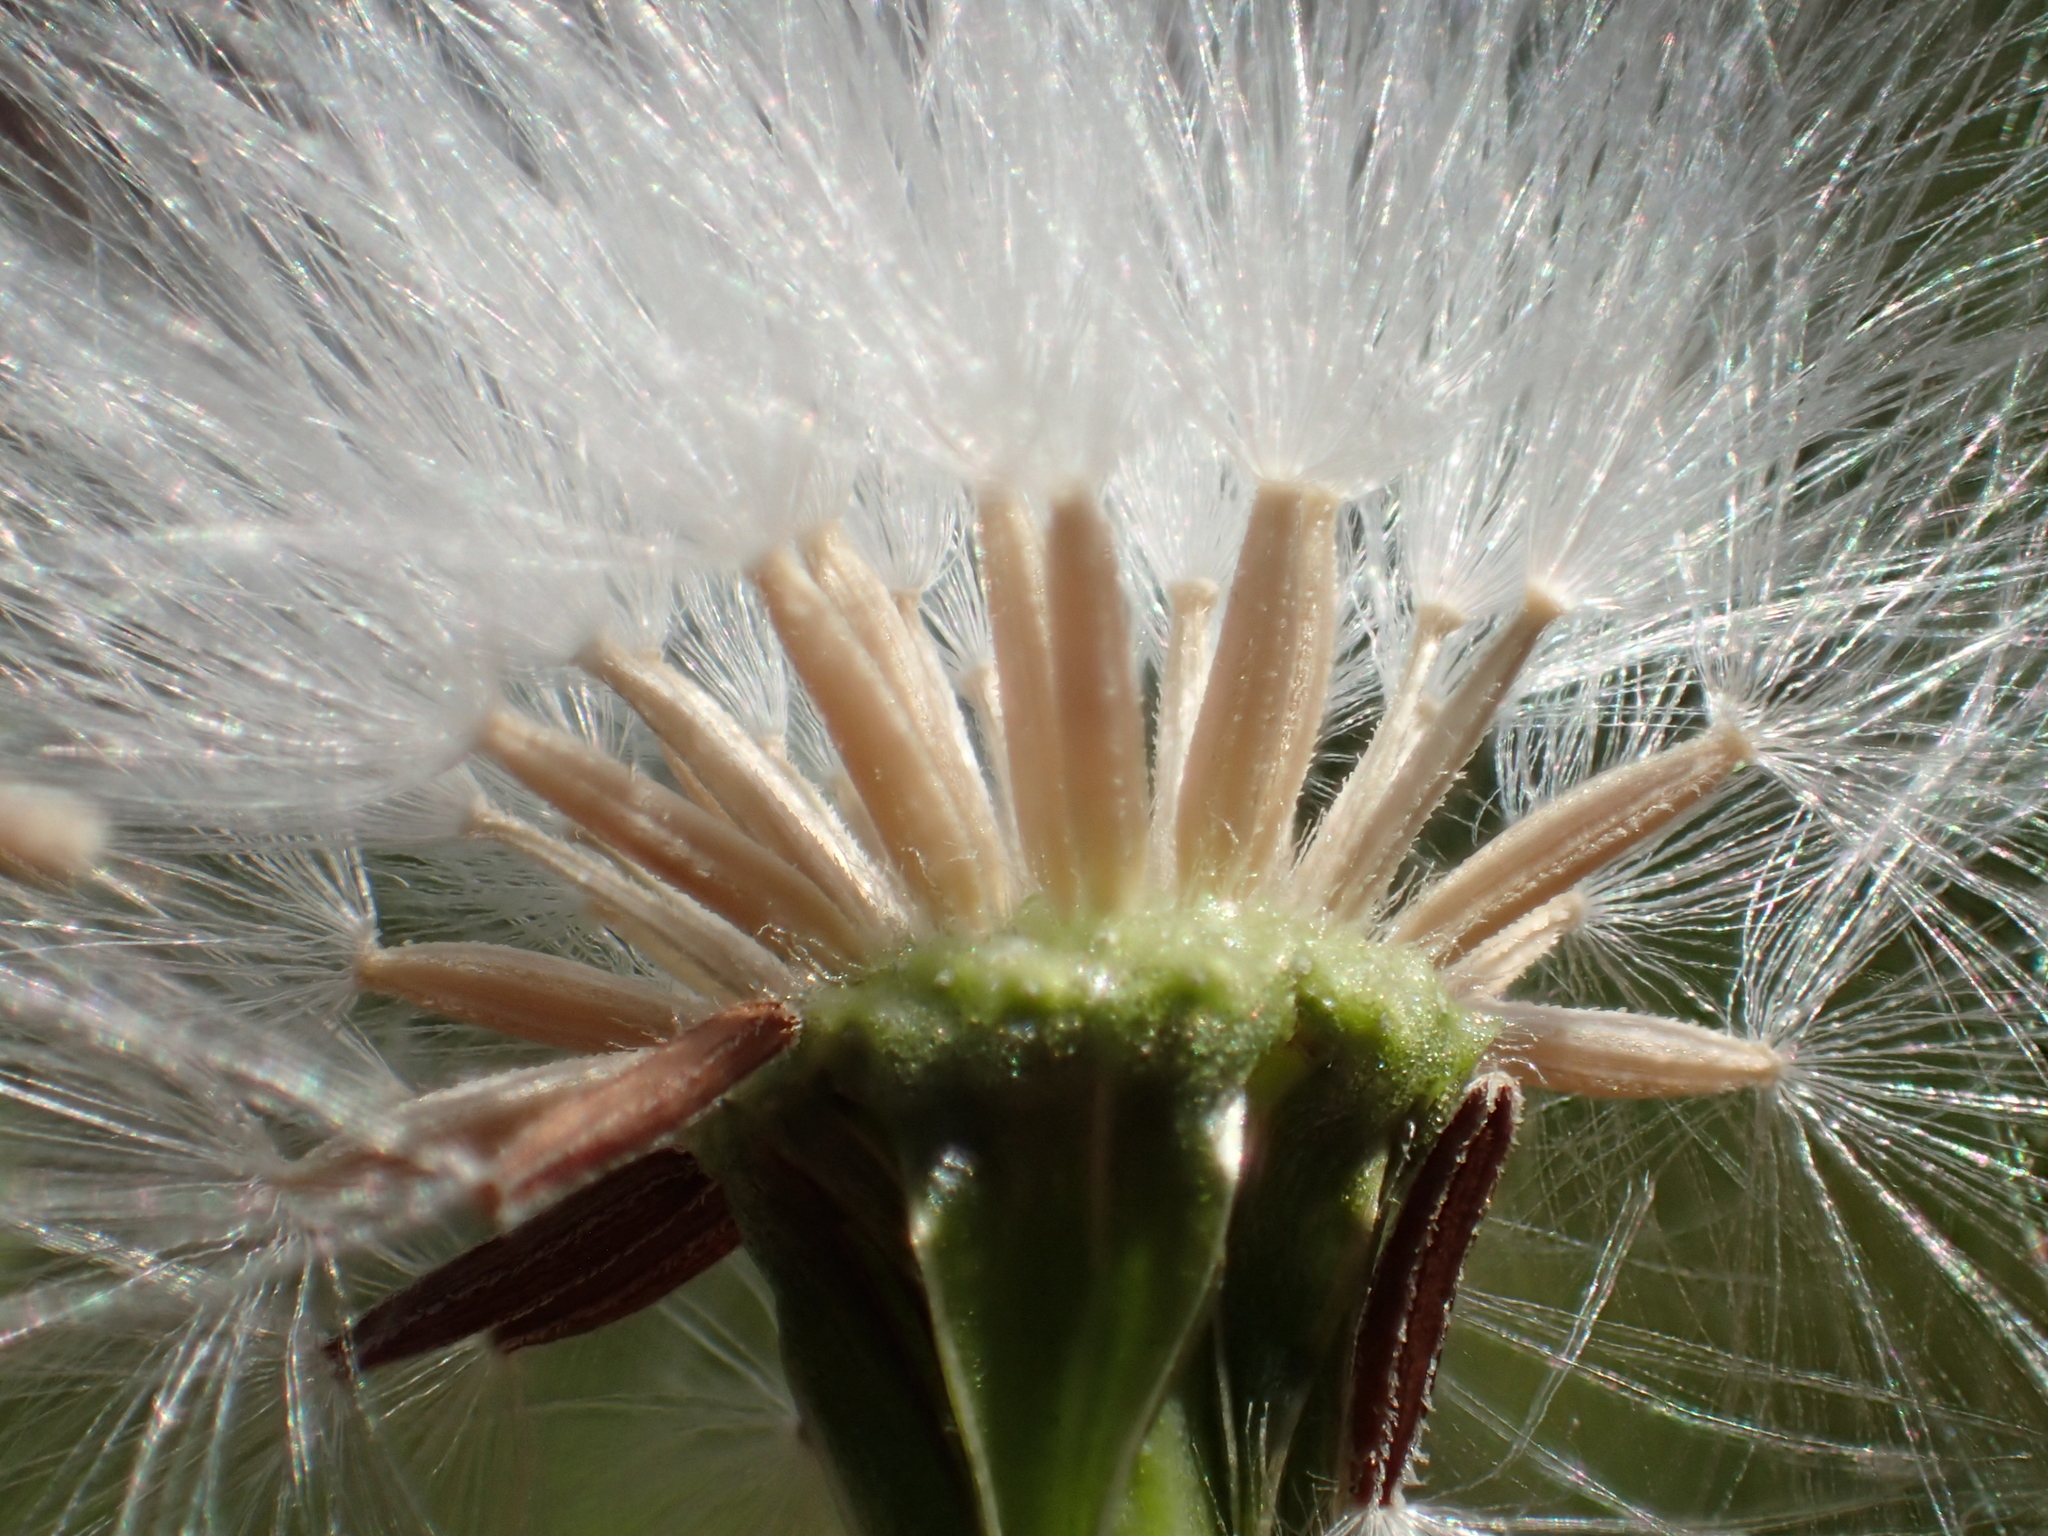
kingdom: Plantae
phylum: Tracheophyta
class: Magnoliopsida
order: Asterales
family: Asteraceae
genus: Emilia
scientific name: Emilia praetermissa
